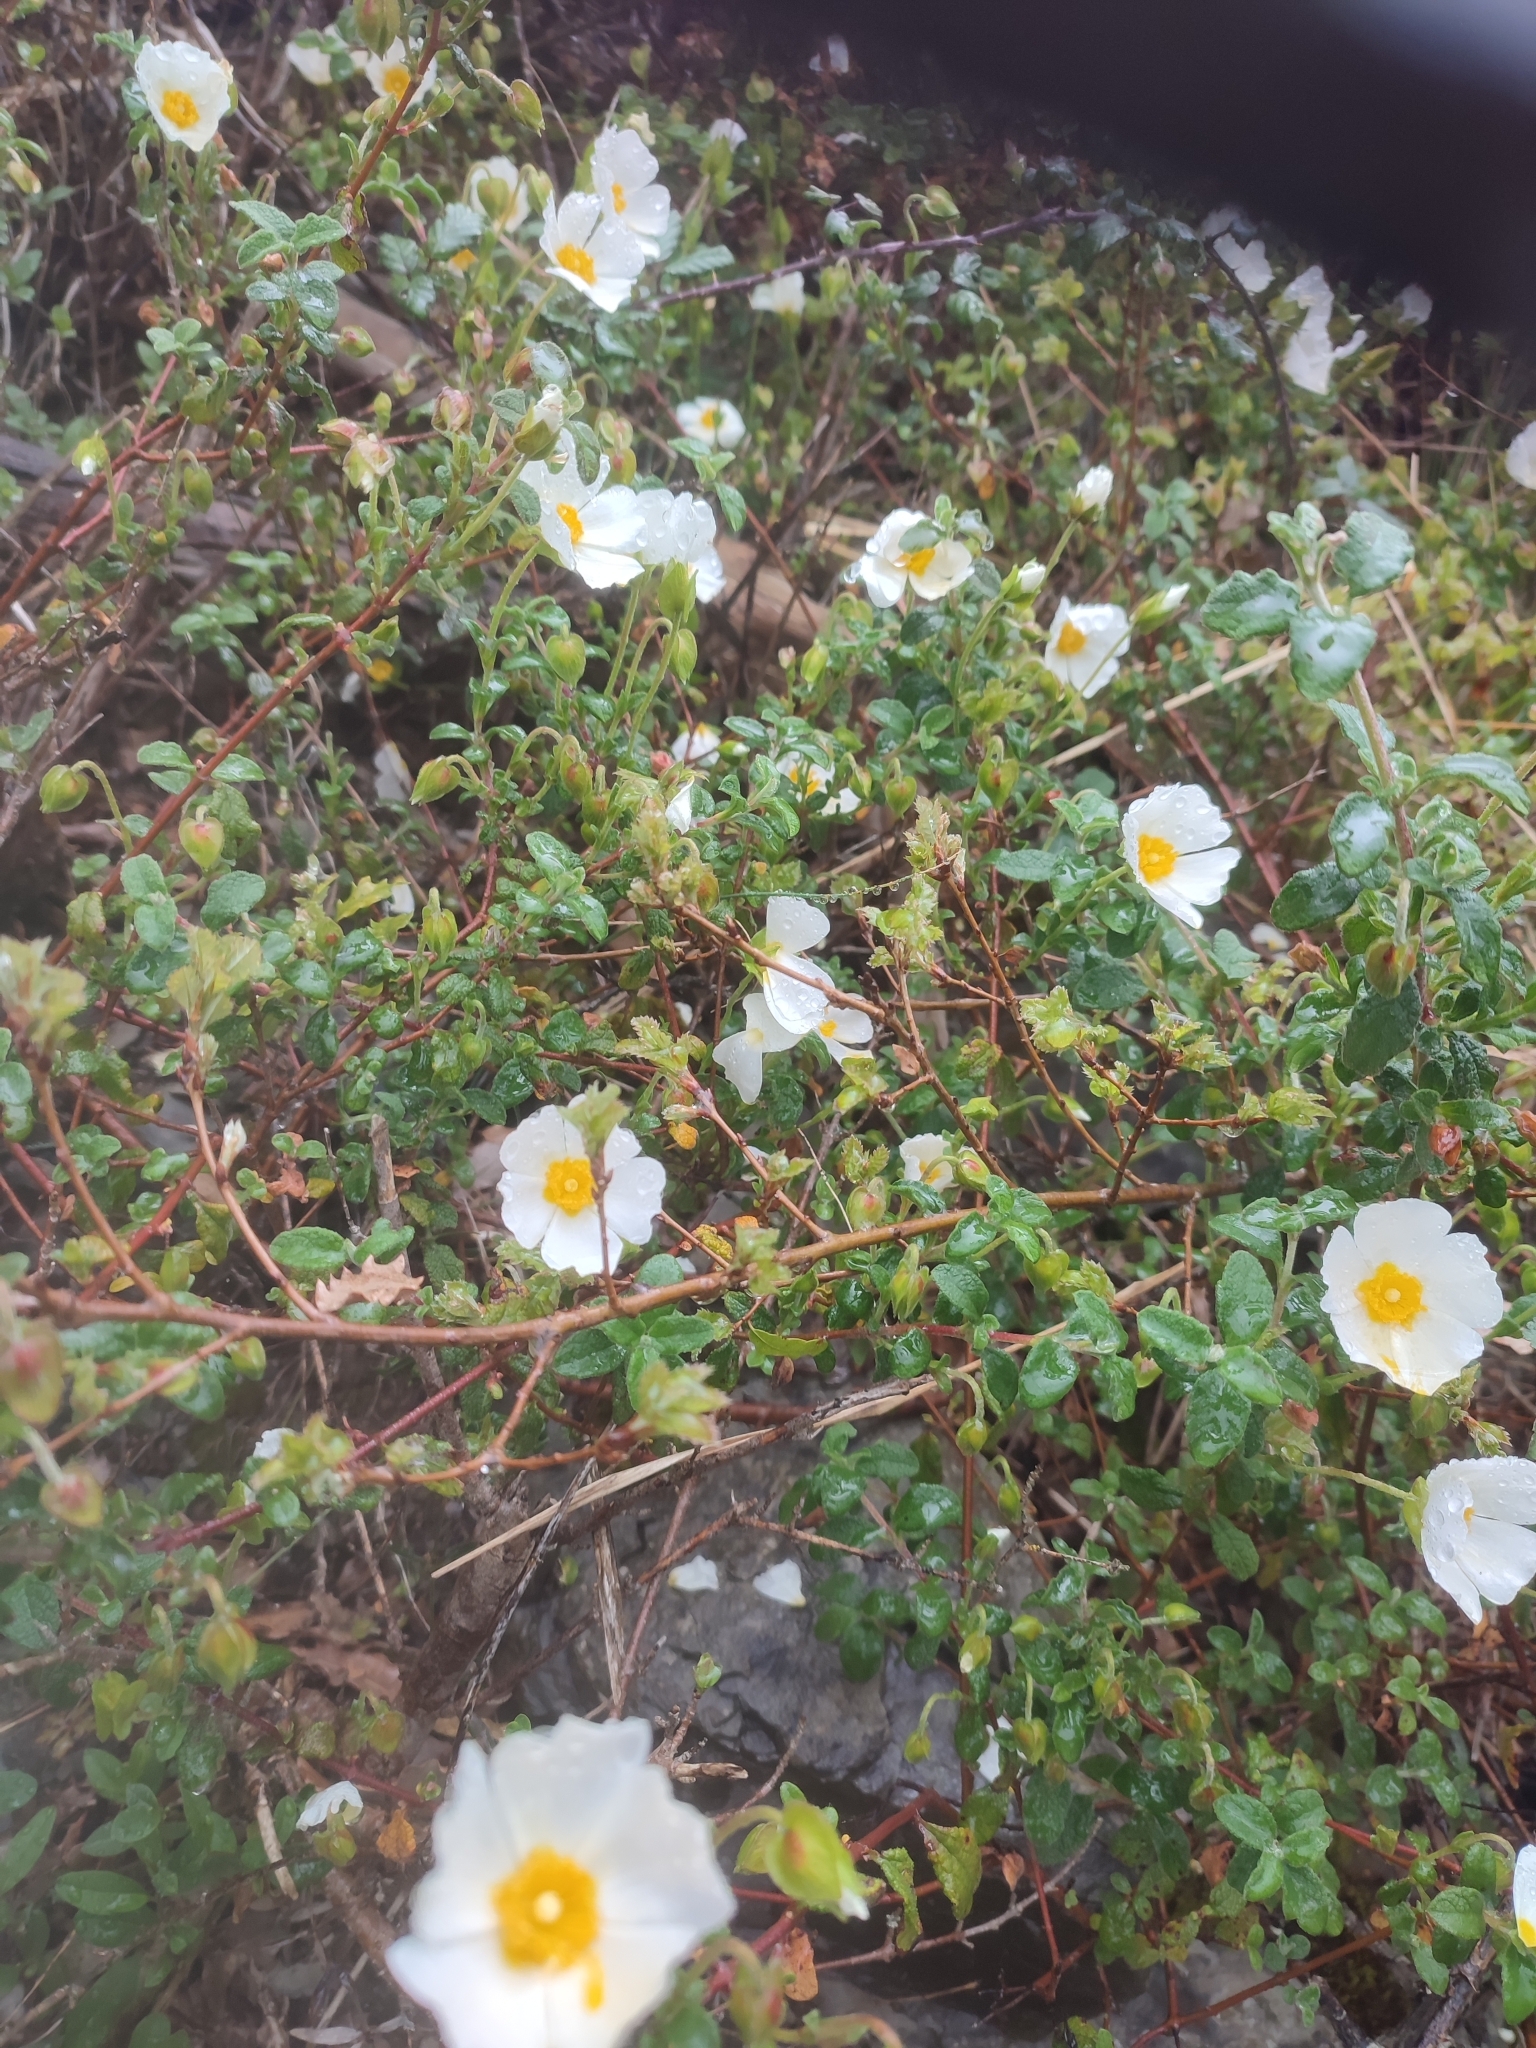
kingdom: Plantae
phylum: Tracheophyta
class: Magnoliopsida
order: Malvales
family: Cistaceae
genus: Cistus
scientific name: Cistus salviifolius
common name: Salvia cistus
